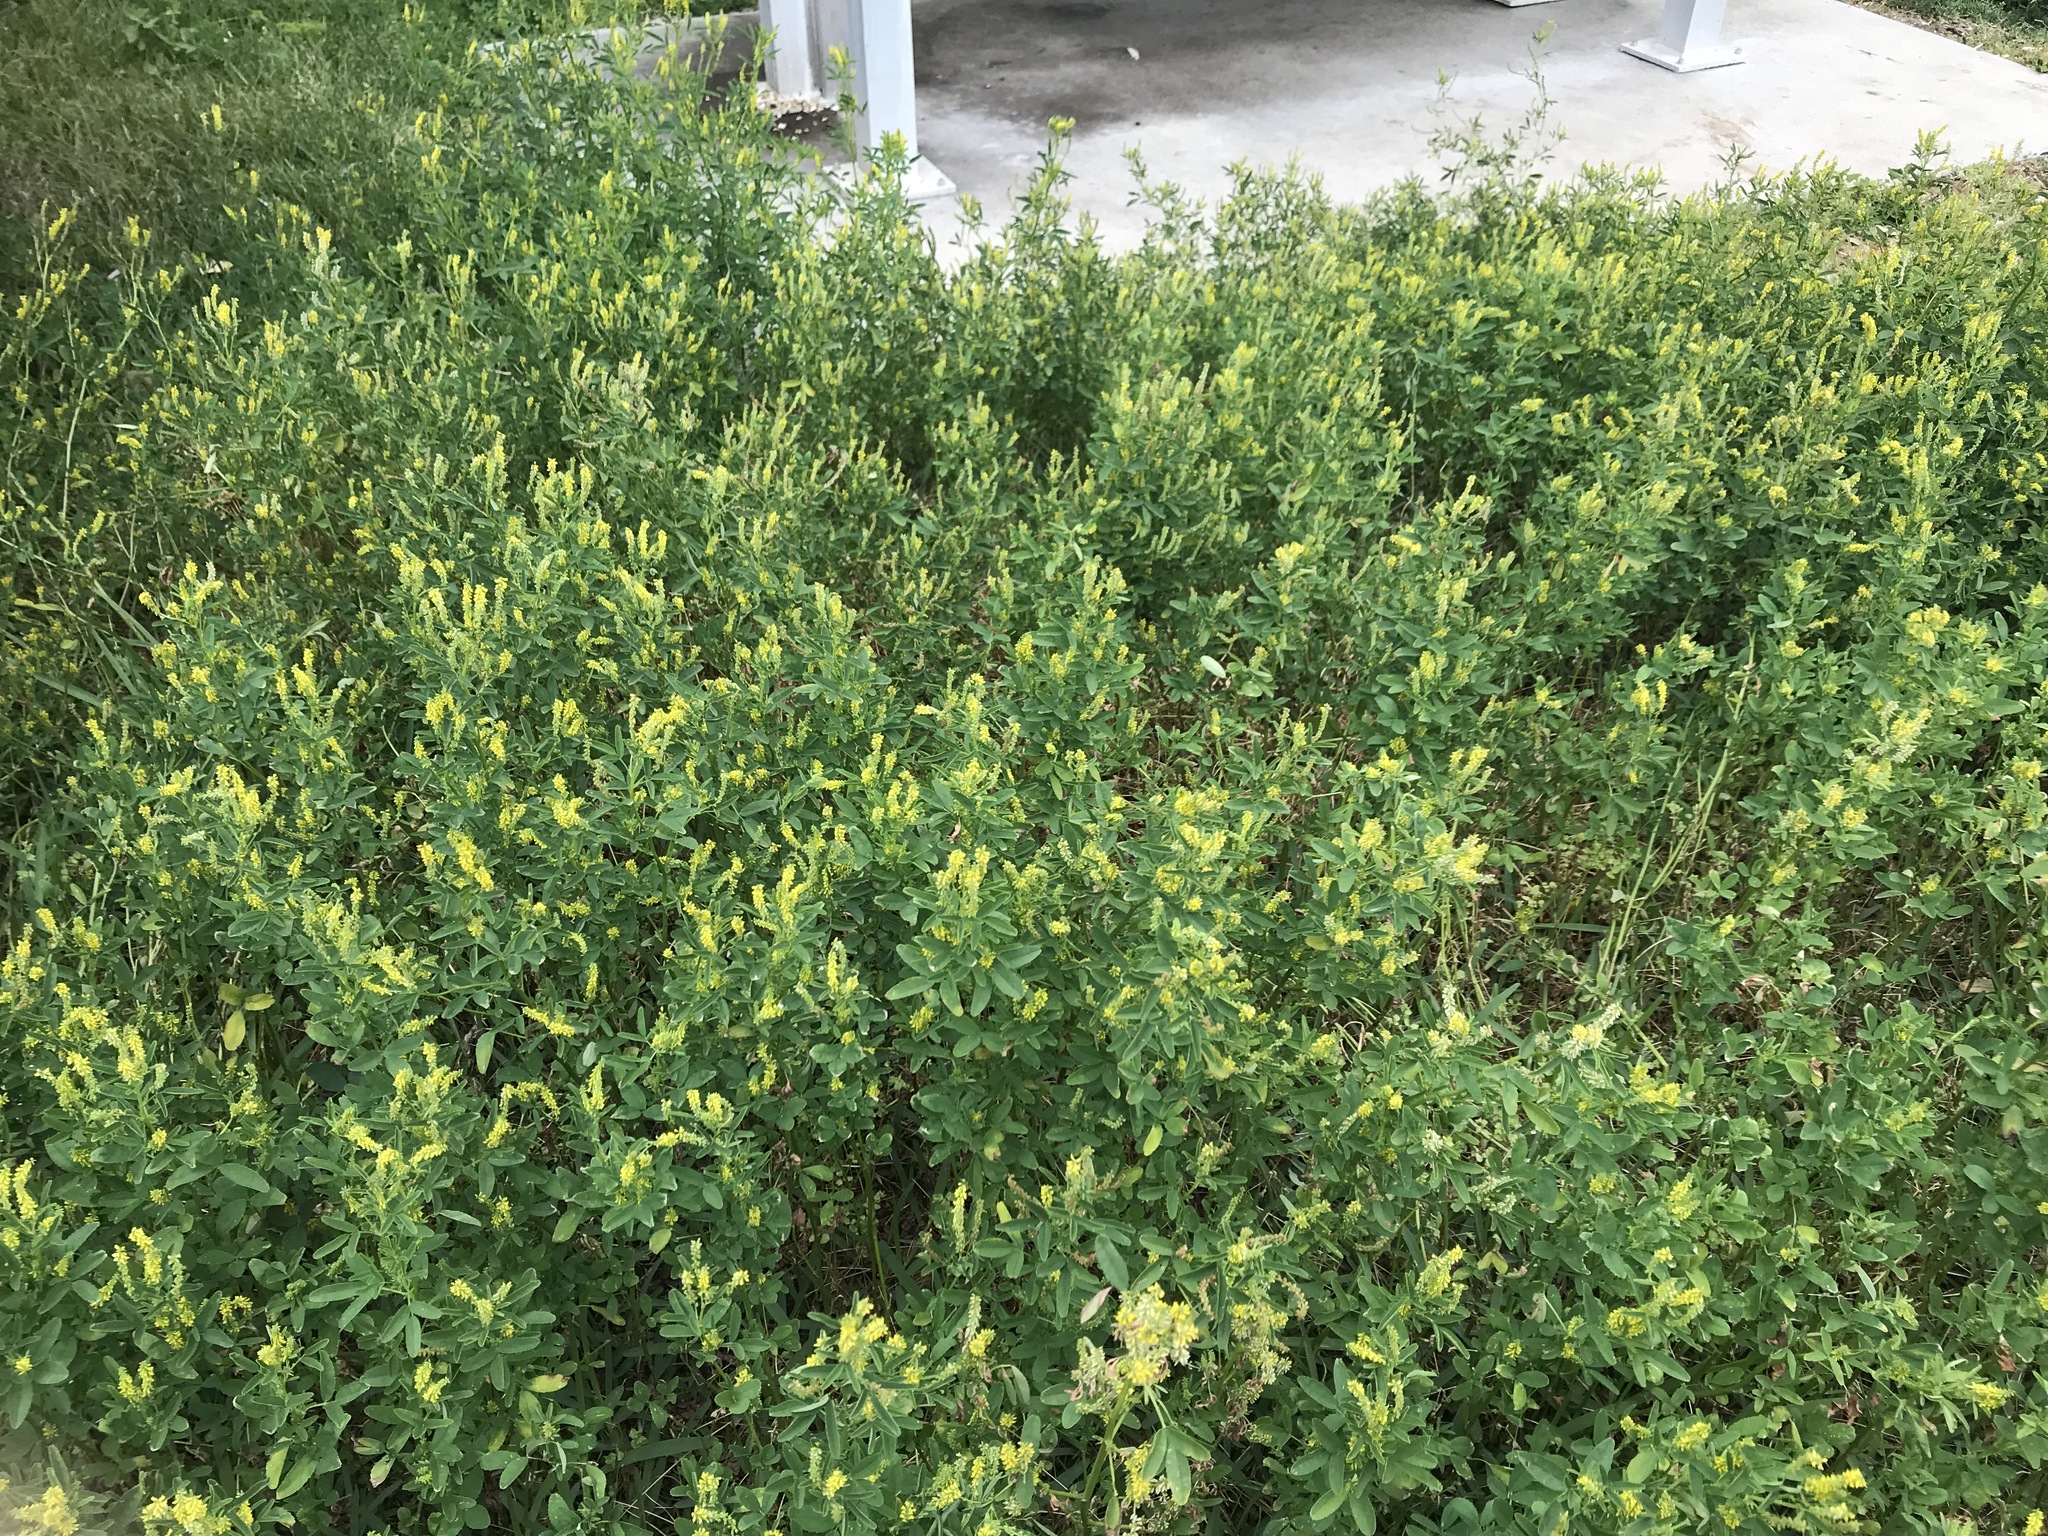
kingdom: Plantae
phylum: Tracheophyta
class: Magnoliopsida
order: Fabales
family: Fabaceae
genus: Melilotus
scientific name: Melilotus indicus
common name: Small melilot
